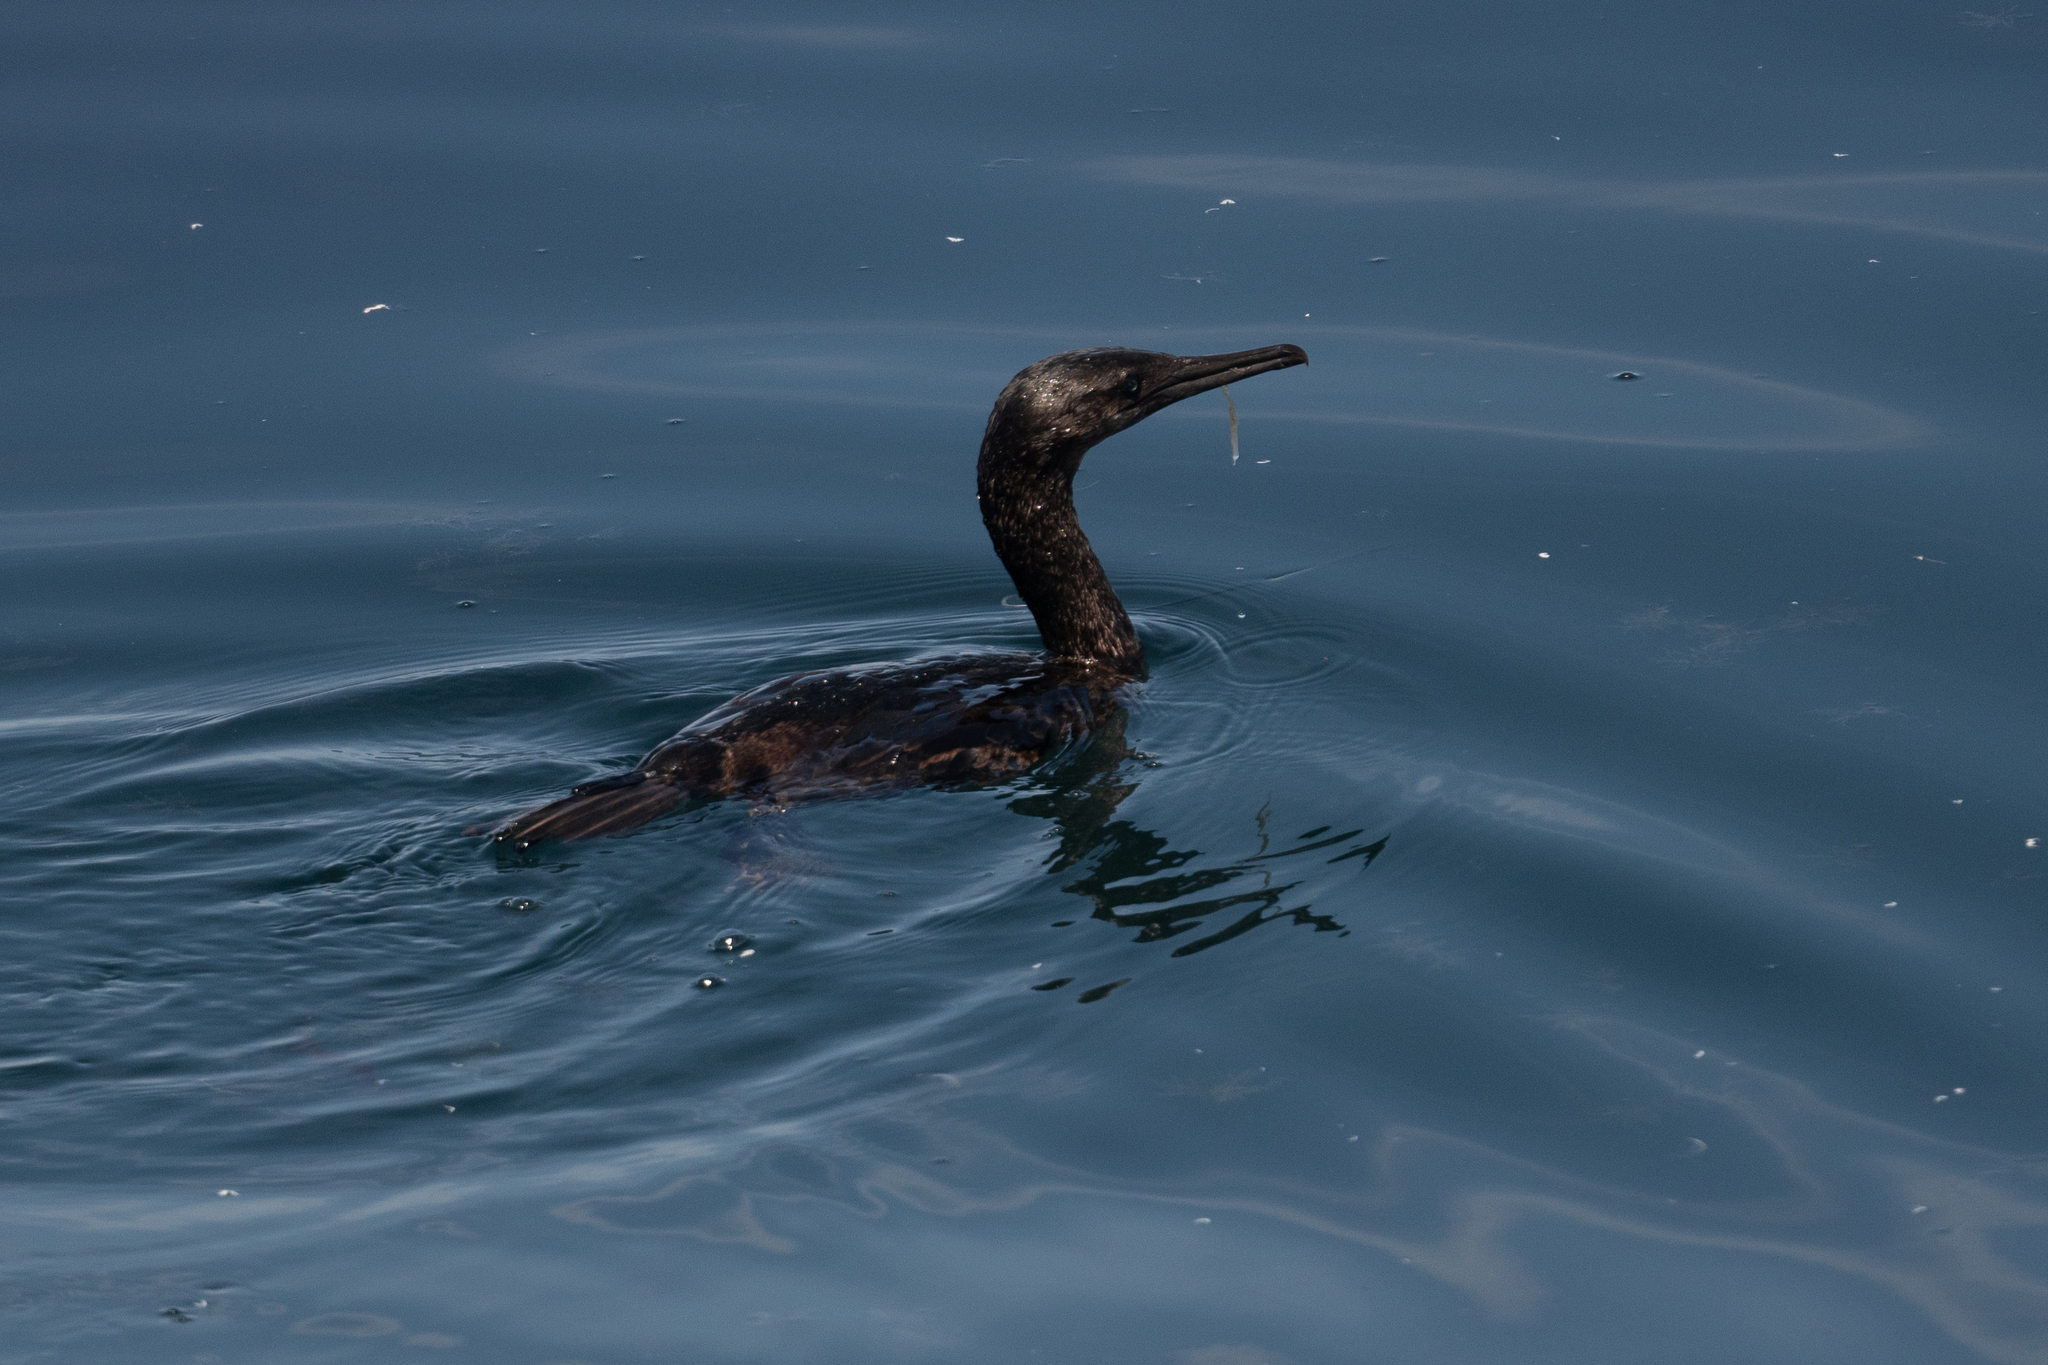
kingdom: Animalia
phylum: Chordata
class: Aves
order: Suliformes
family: Phalacrocoracidae
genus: Urile
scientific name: Urile penicillatus
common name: Brandt's cormorant
